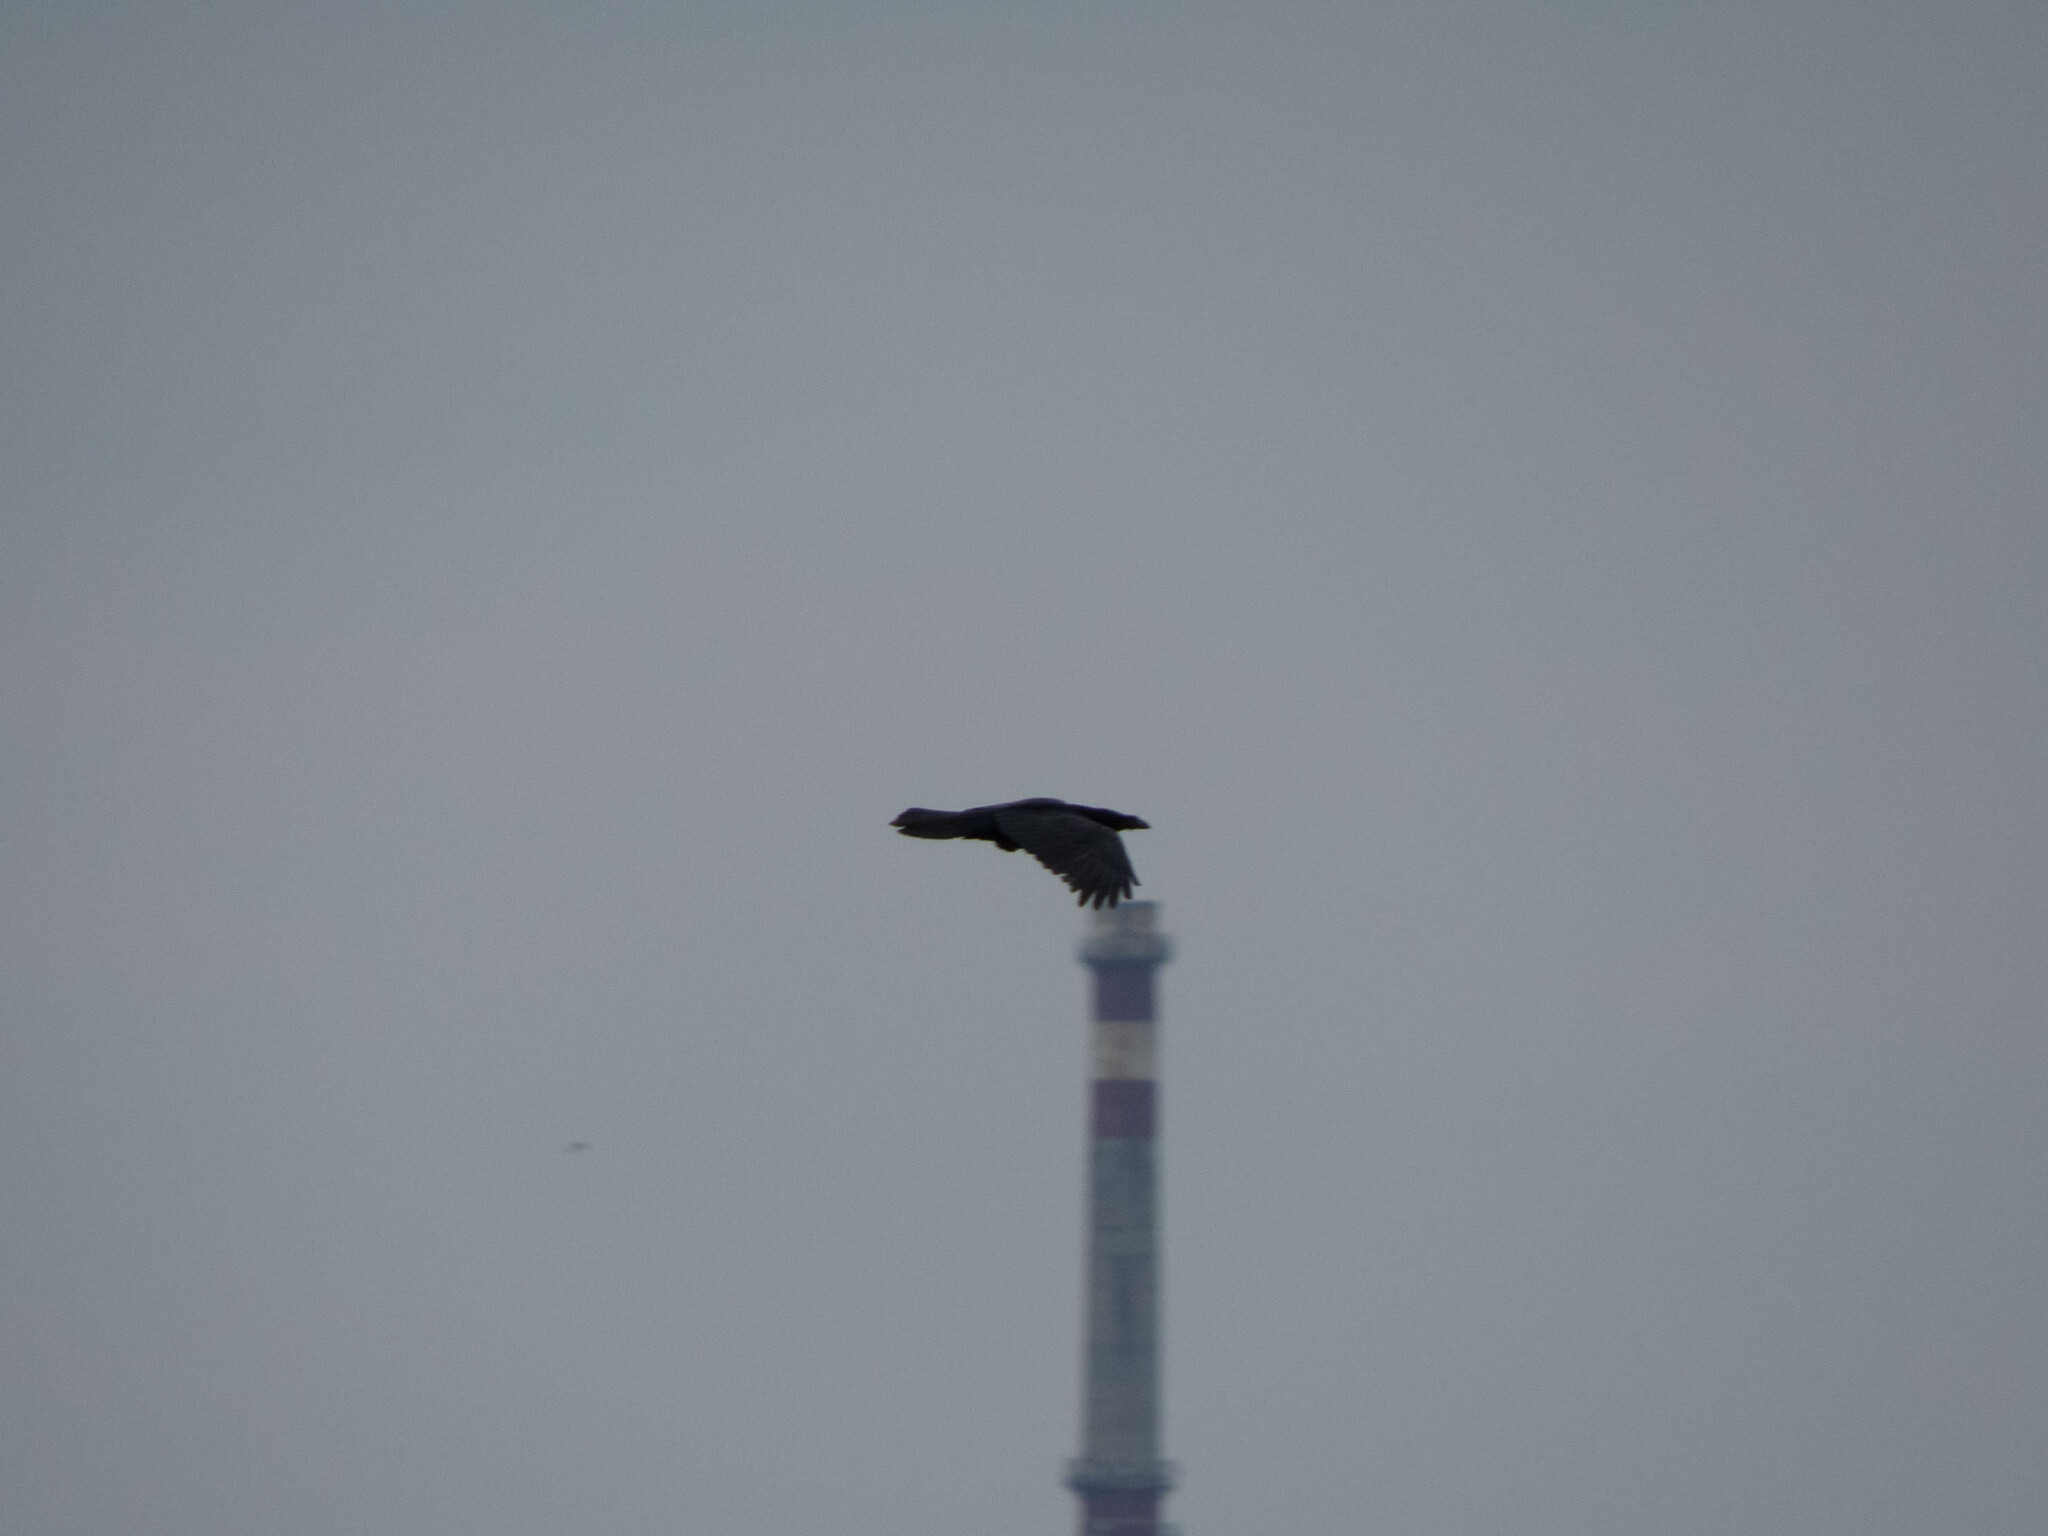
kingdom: Animalia
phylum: Chordata
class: Aves
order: Passeriformes
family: Corvidae
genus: Corvus
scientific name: Corvus corax
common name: Common raven
